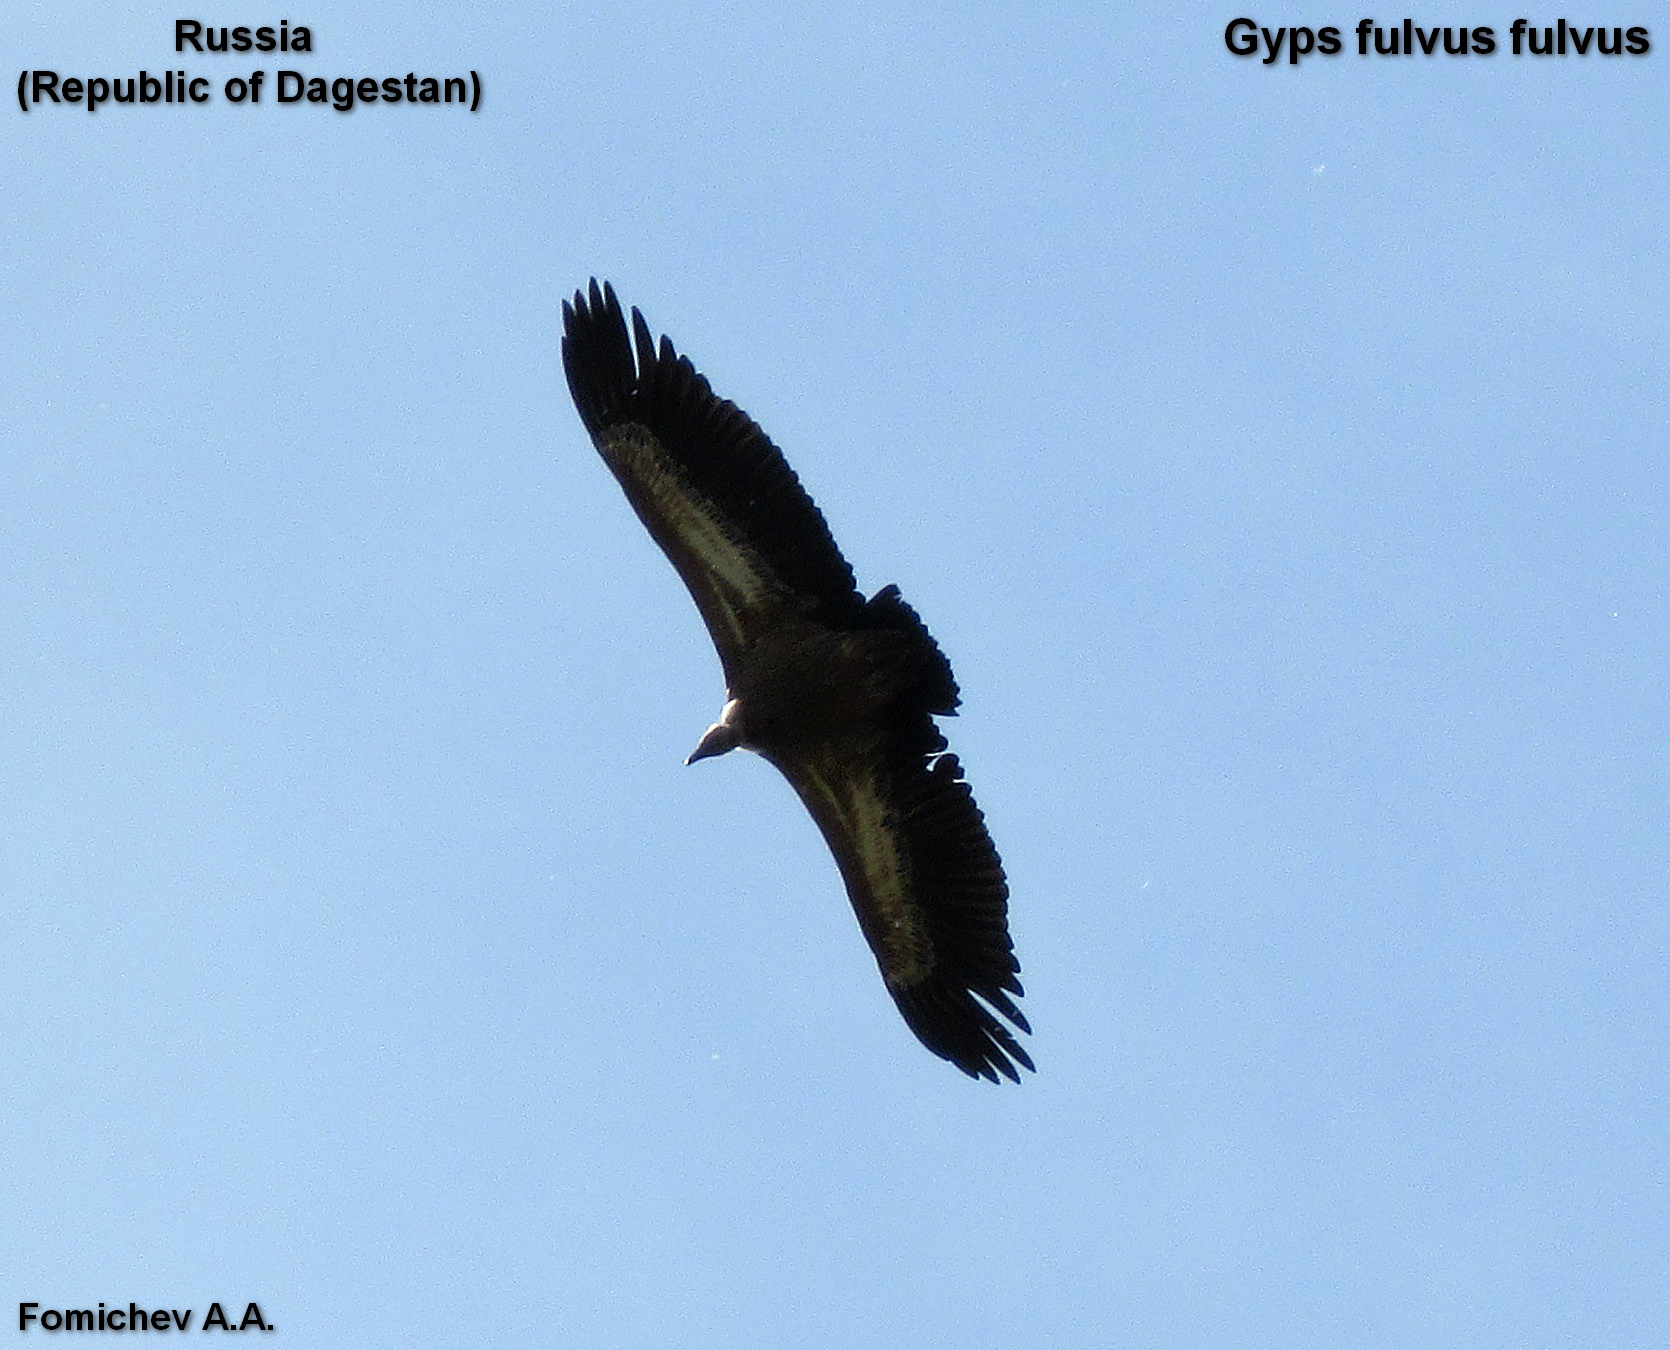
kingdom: Animalia
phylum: Chordata
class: Aves
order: Accipitriformes
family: Accipitridae
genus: Gyps
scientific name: Gyps fulvus
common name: Griffon vulture
